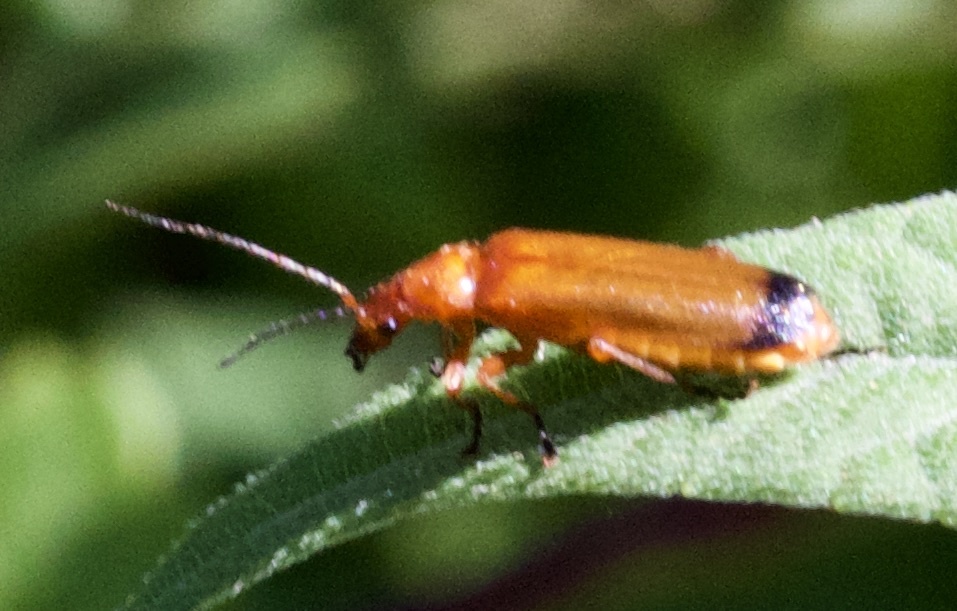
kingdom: Animalia
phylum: Arthropoda
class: Insecta
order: Coleoptera
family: Cantharidae
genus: Rhagonycha
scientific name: Rhagonycha fulva
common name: Common red soldier beetle
